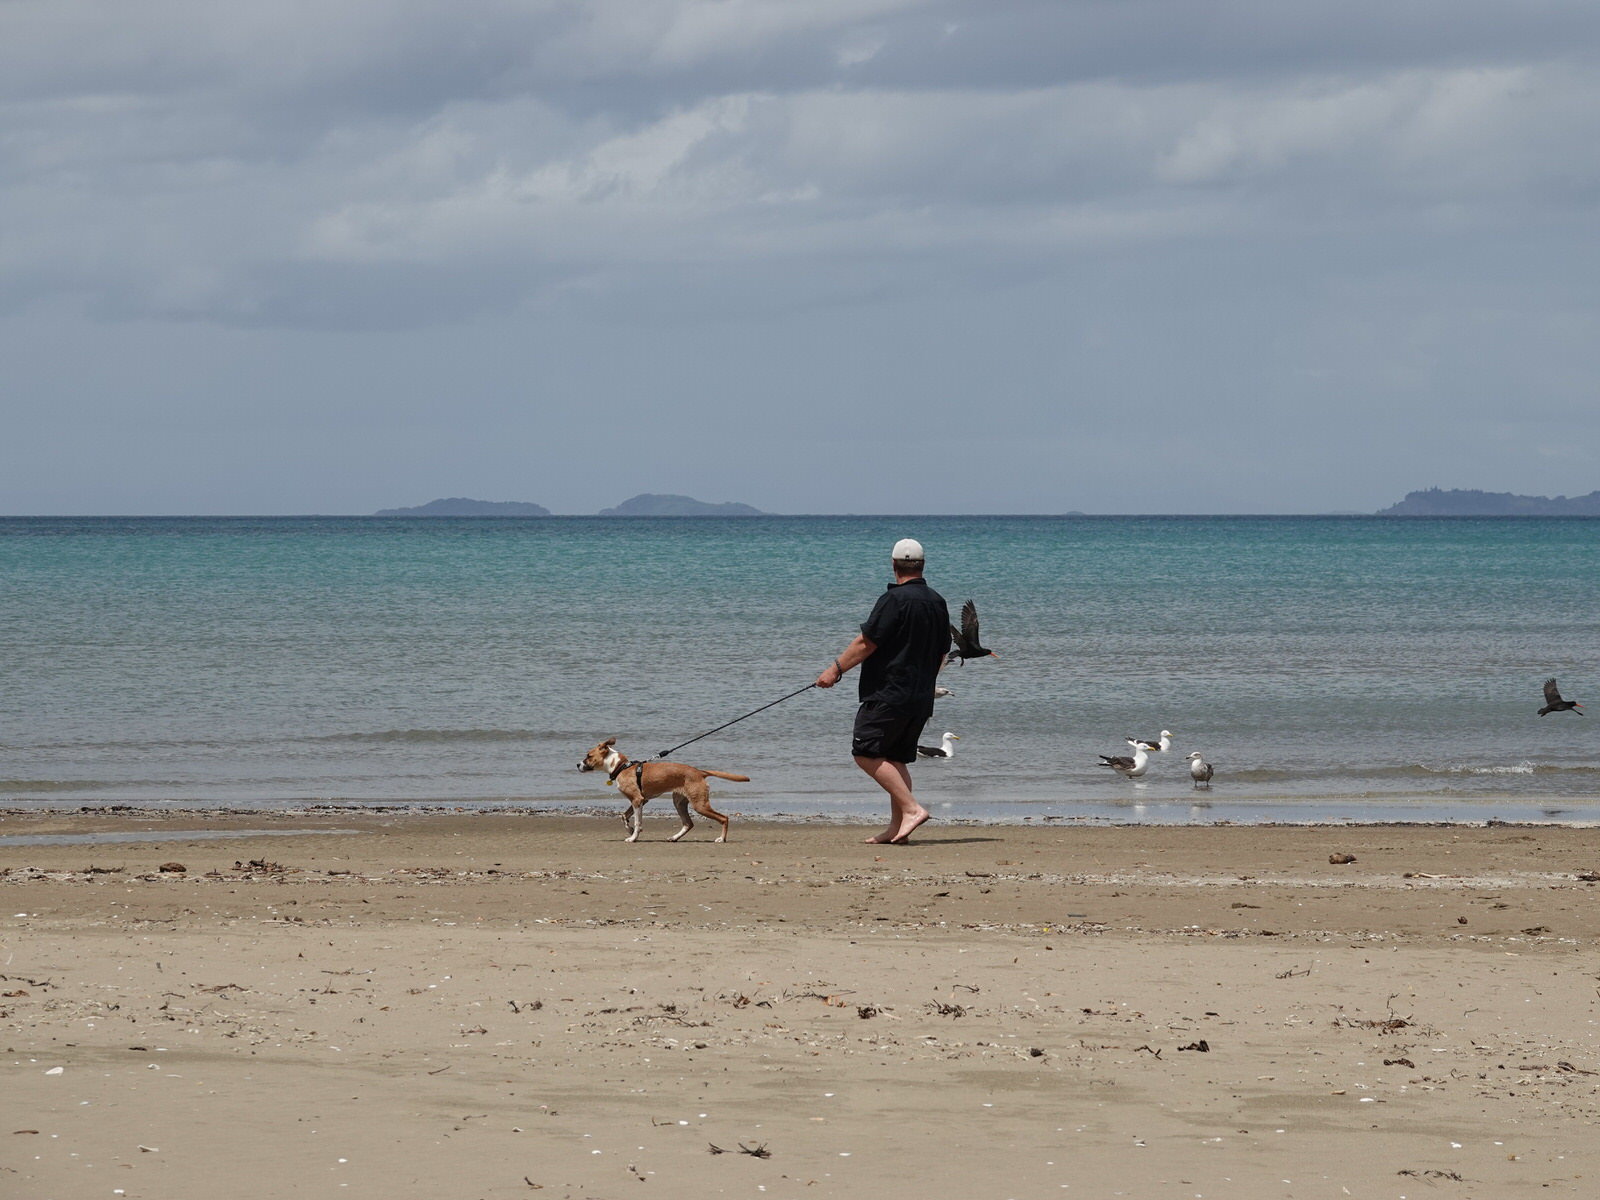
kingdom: Animalia
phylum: Chordata
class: Aves
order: Charadriiformes
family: Haematopodidae
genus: Haematopus
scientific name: Haematopus unicolor
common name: Variable oystercatcher
